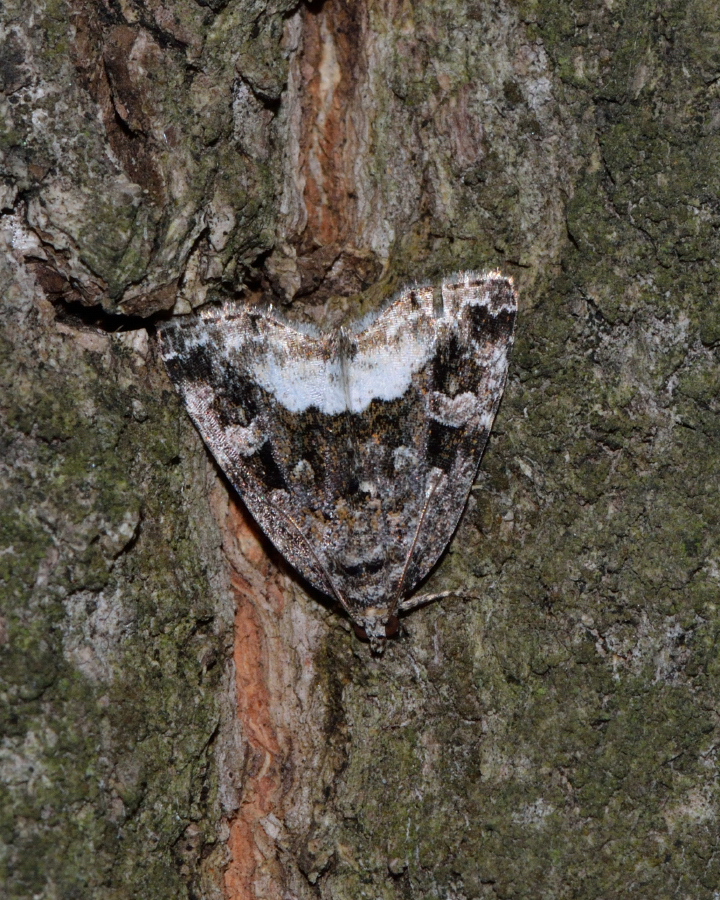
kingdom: Animalia
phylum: Arthropoda
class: Insecta
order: Lepidoptera
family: Noctuidae
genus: Deltote
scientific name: Deltote pygarga
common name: Marbled white spot
